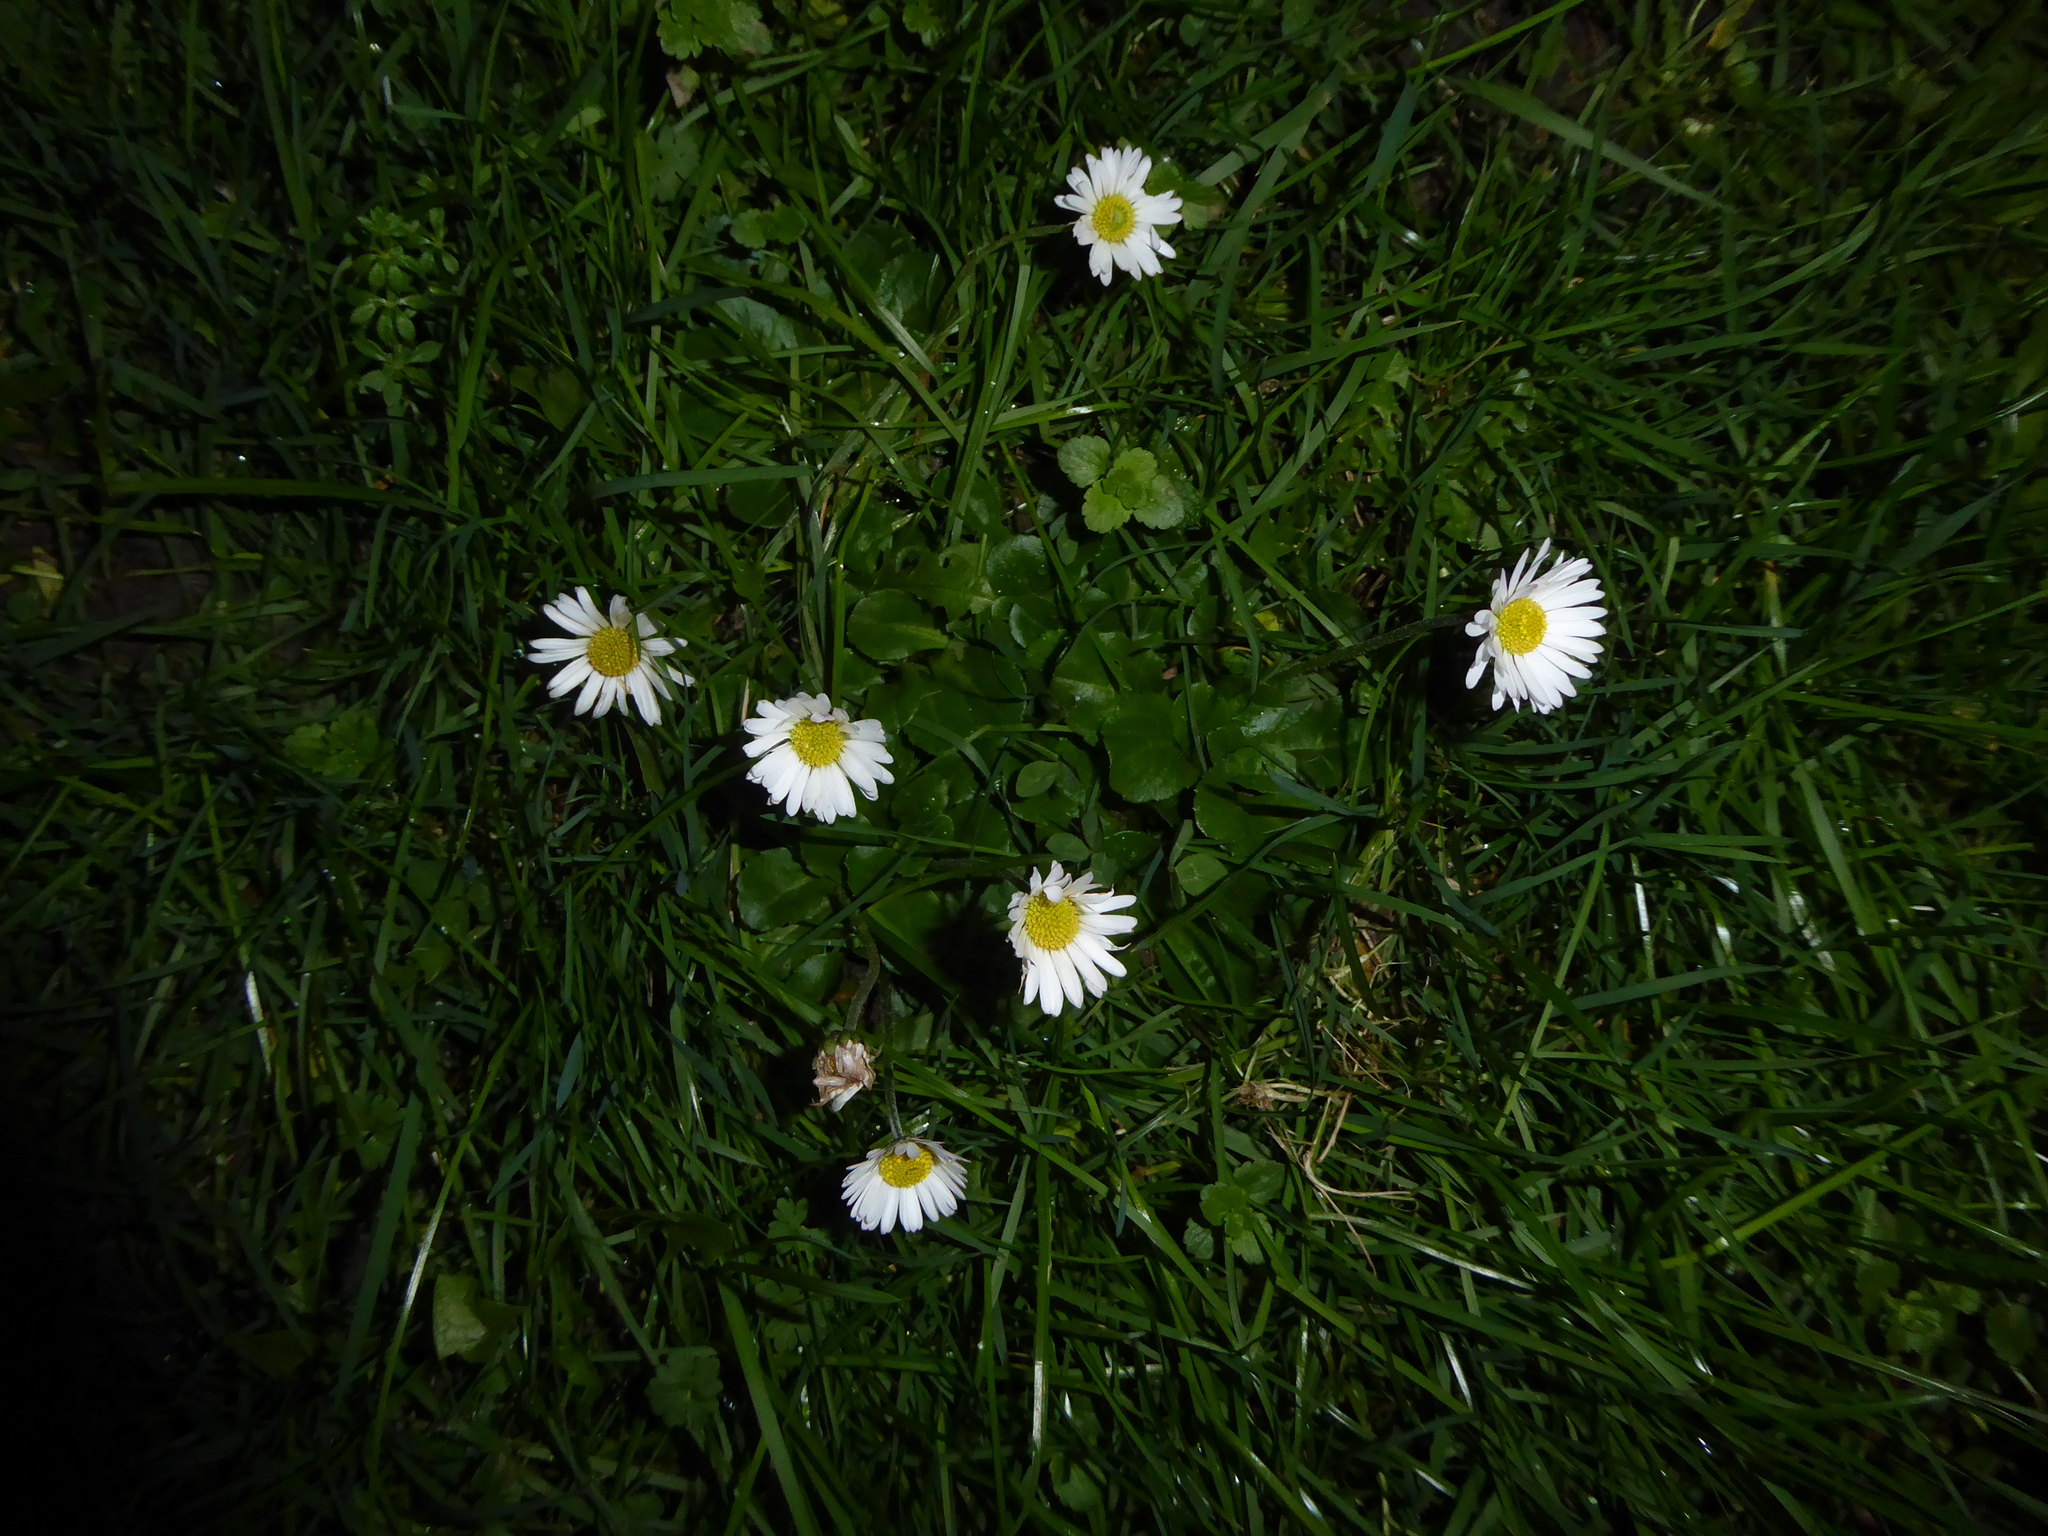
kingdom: Plantae
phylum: Tracheophyta
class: Magnoliopsida
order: Asterales
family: Asteraceae
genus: Bellis
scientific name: Bellis perennis
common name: Lawndaisy
